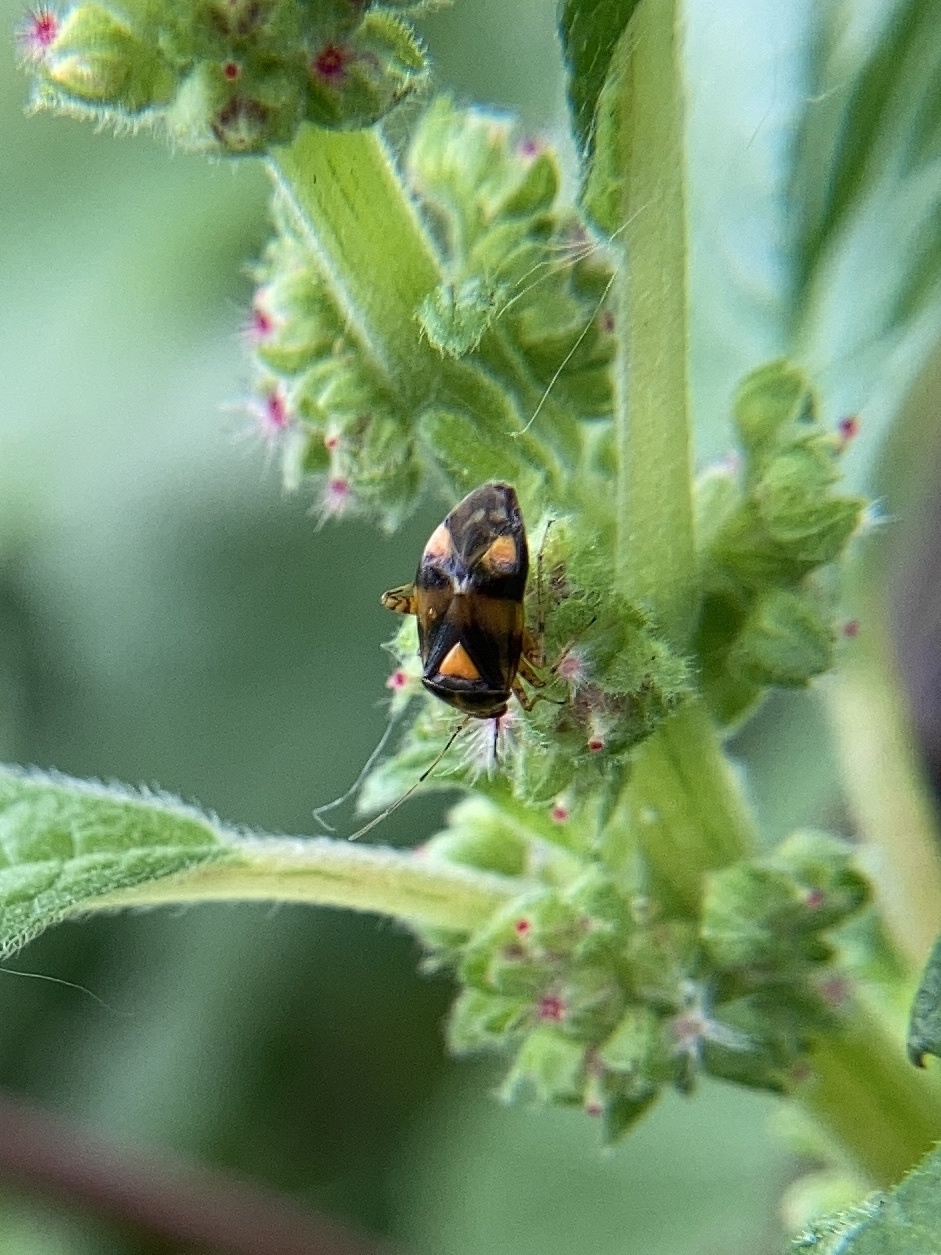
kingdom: Animalia
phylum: Arthropoda
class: Insecta
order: Hemiptera
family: Miridae
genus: Liocoris
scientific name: Liocoris tripustulatus
